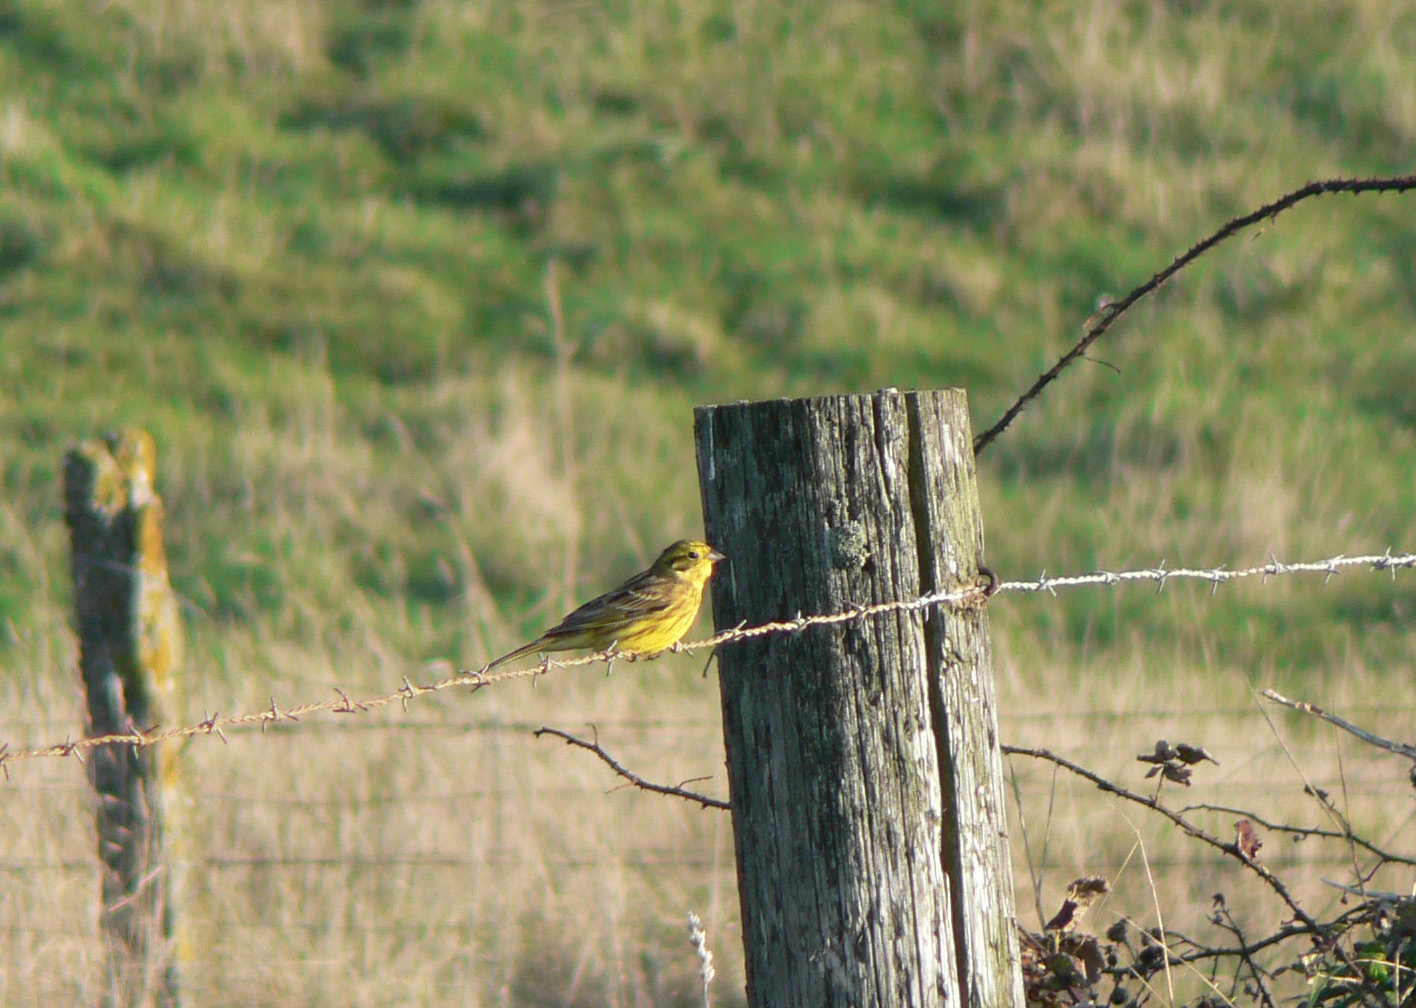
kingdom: Animalia
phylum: Chordata
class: Aves
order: Passeriformes
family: Emberizidae
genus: Emberiza
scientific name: Emberiza citrinella
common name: Yellowhammer
